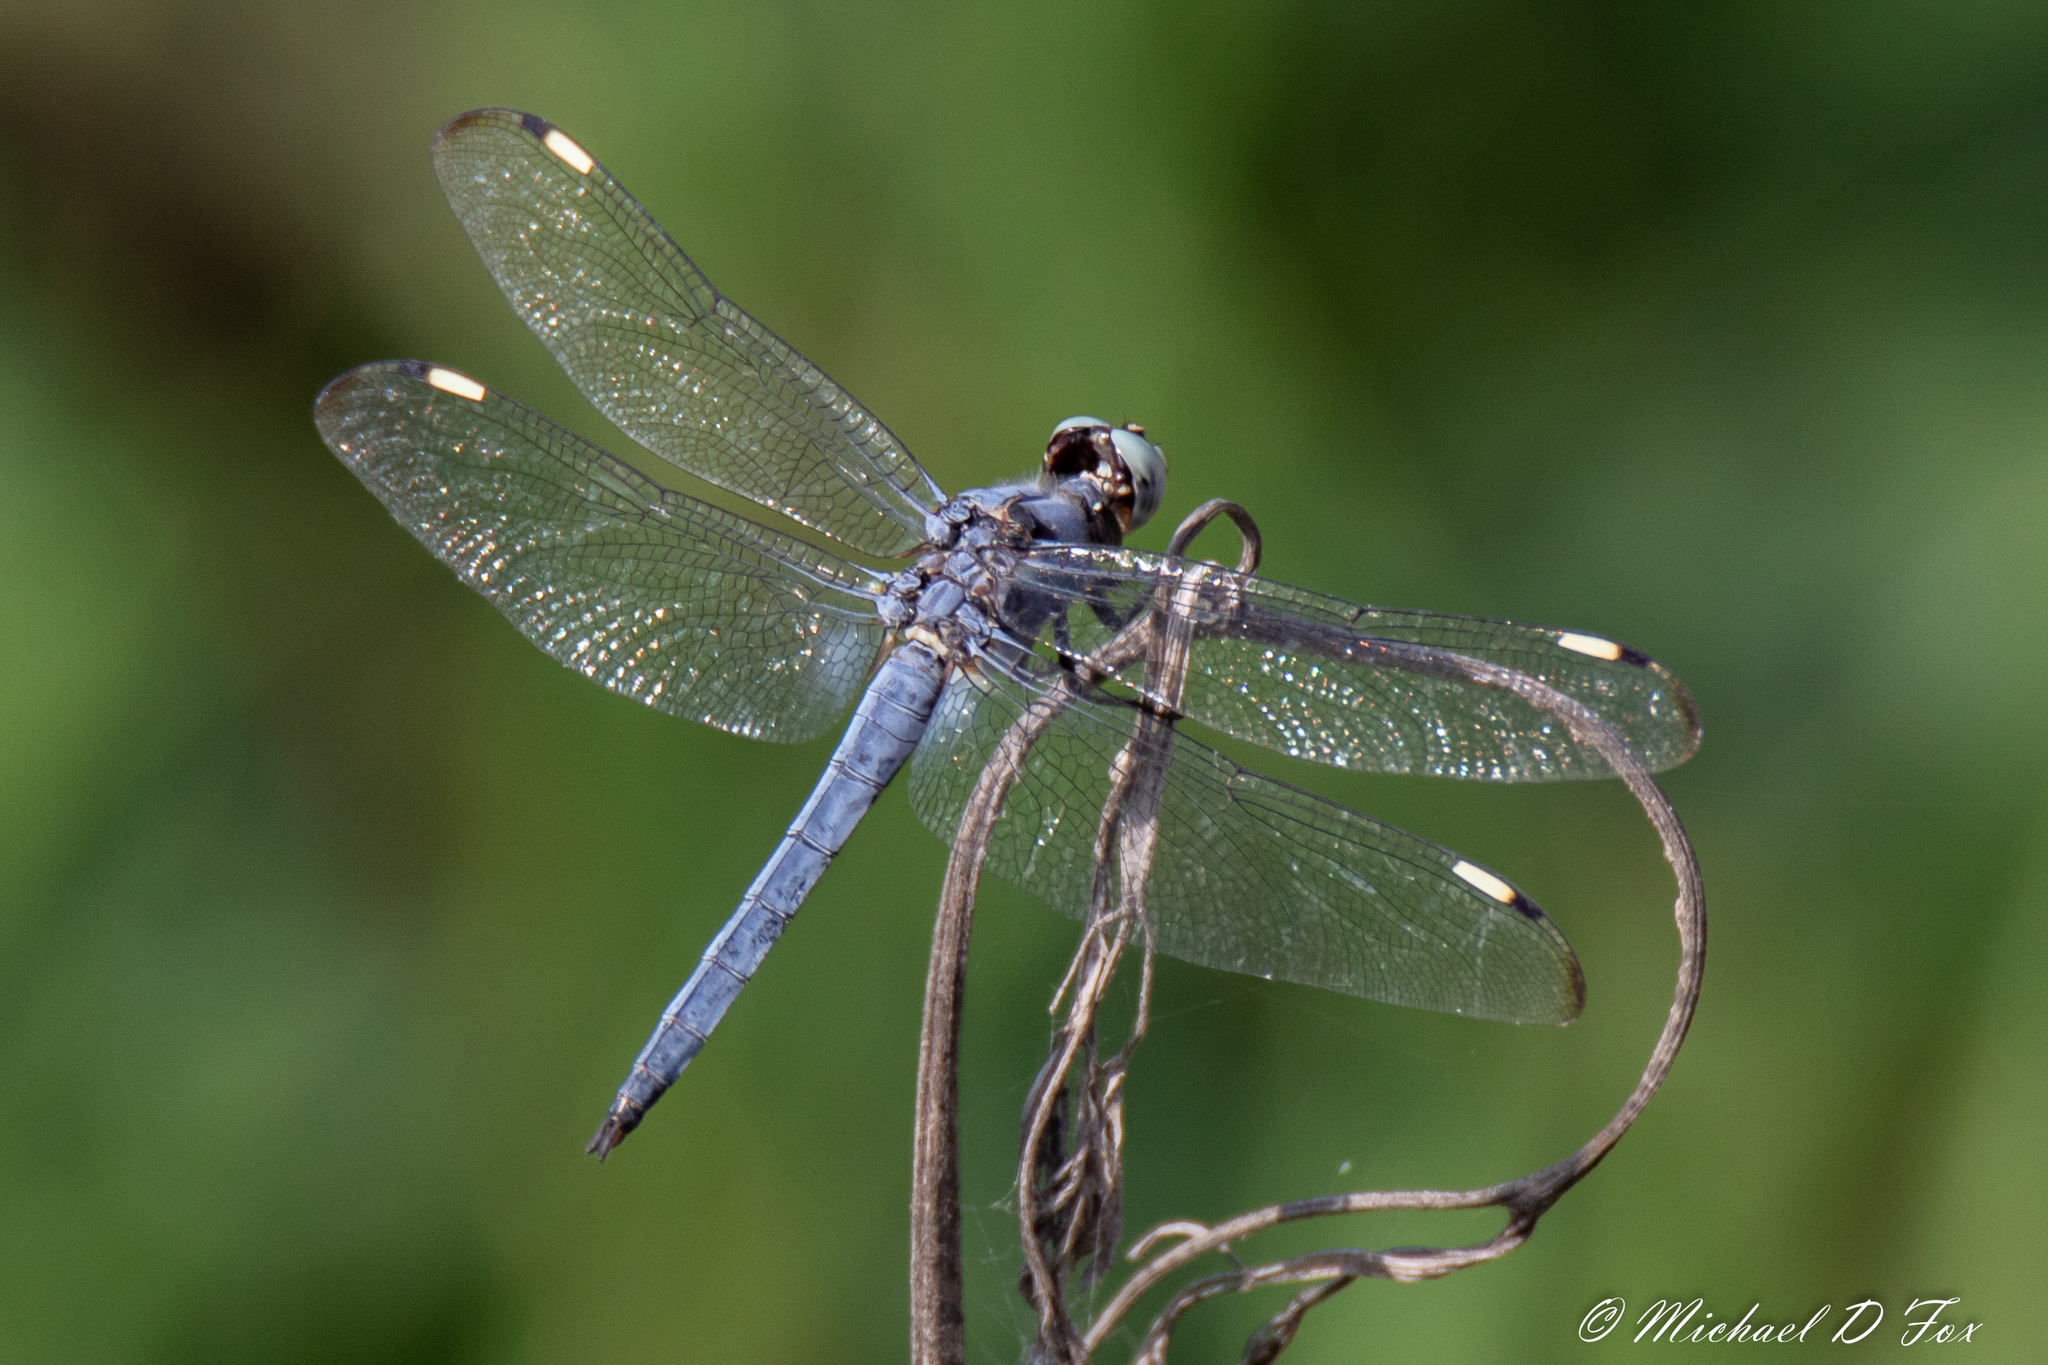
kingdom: Animalia
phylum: Arthropoda
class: Insecta
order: Odonata
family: Libellulidae
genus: Libellula
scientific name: Libellula comanche
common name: Comanche skimmer
